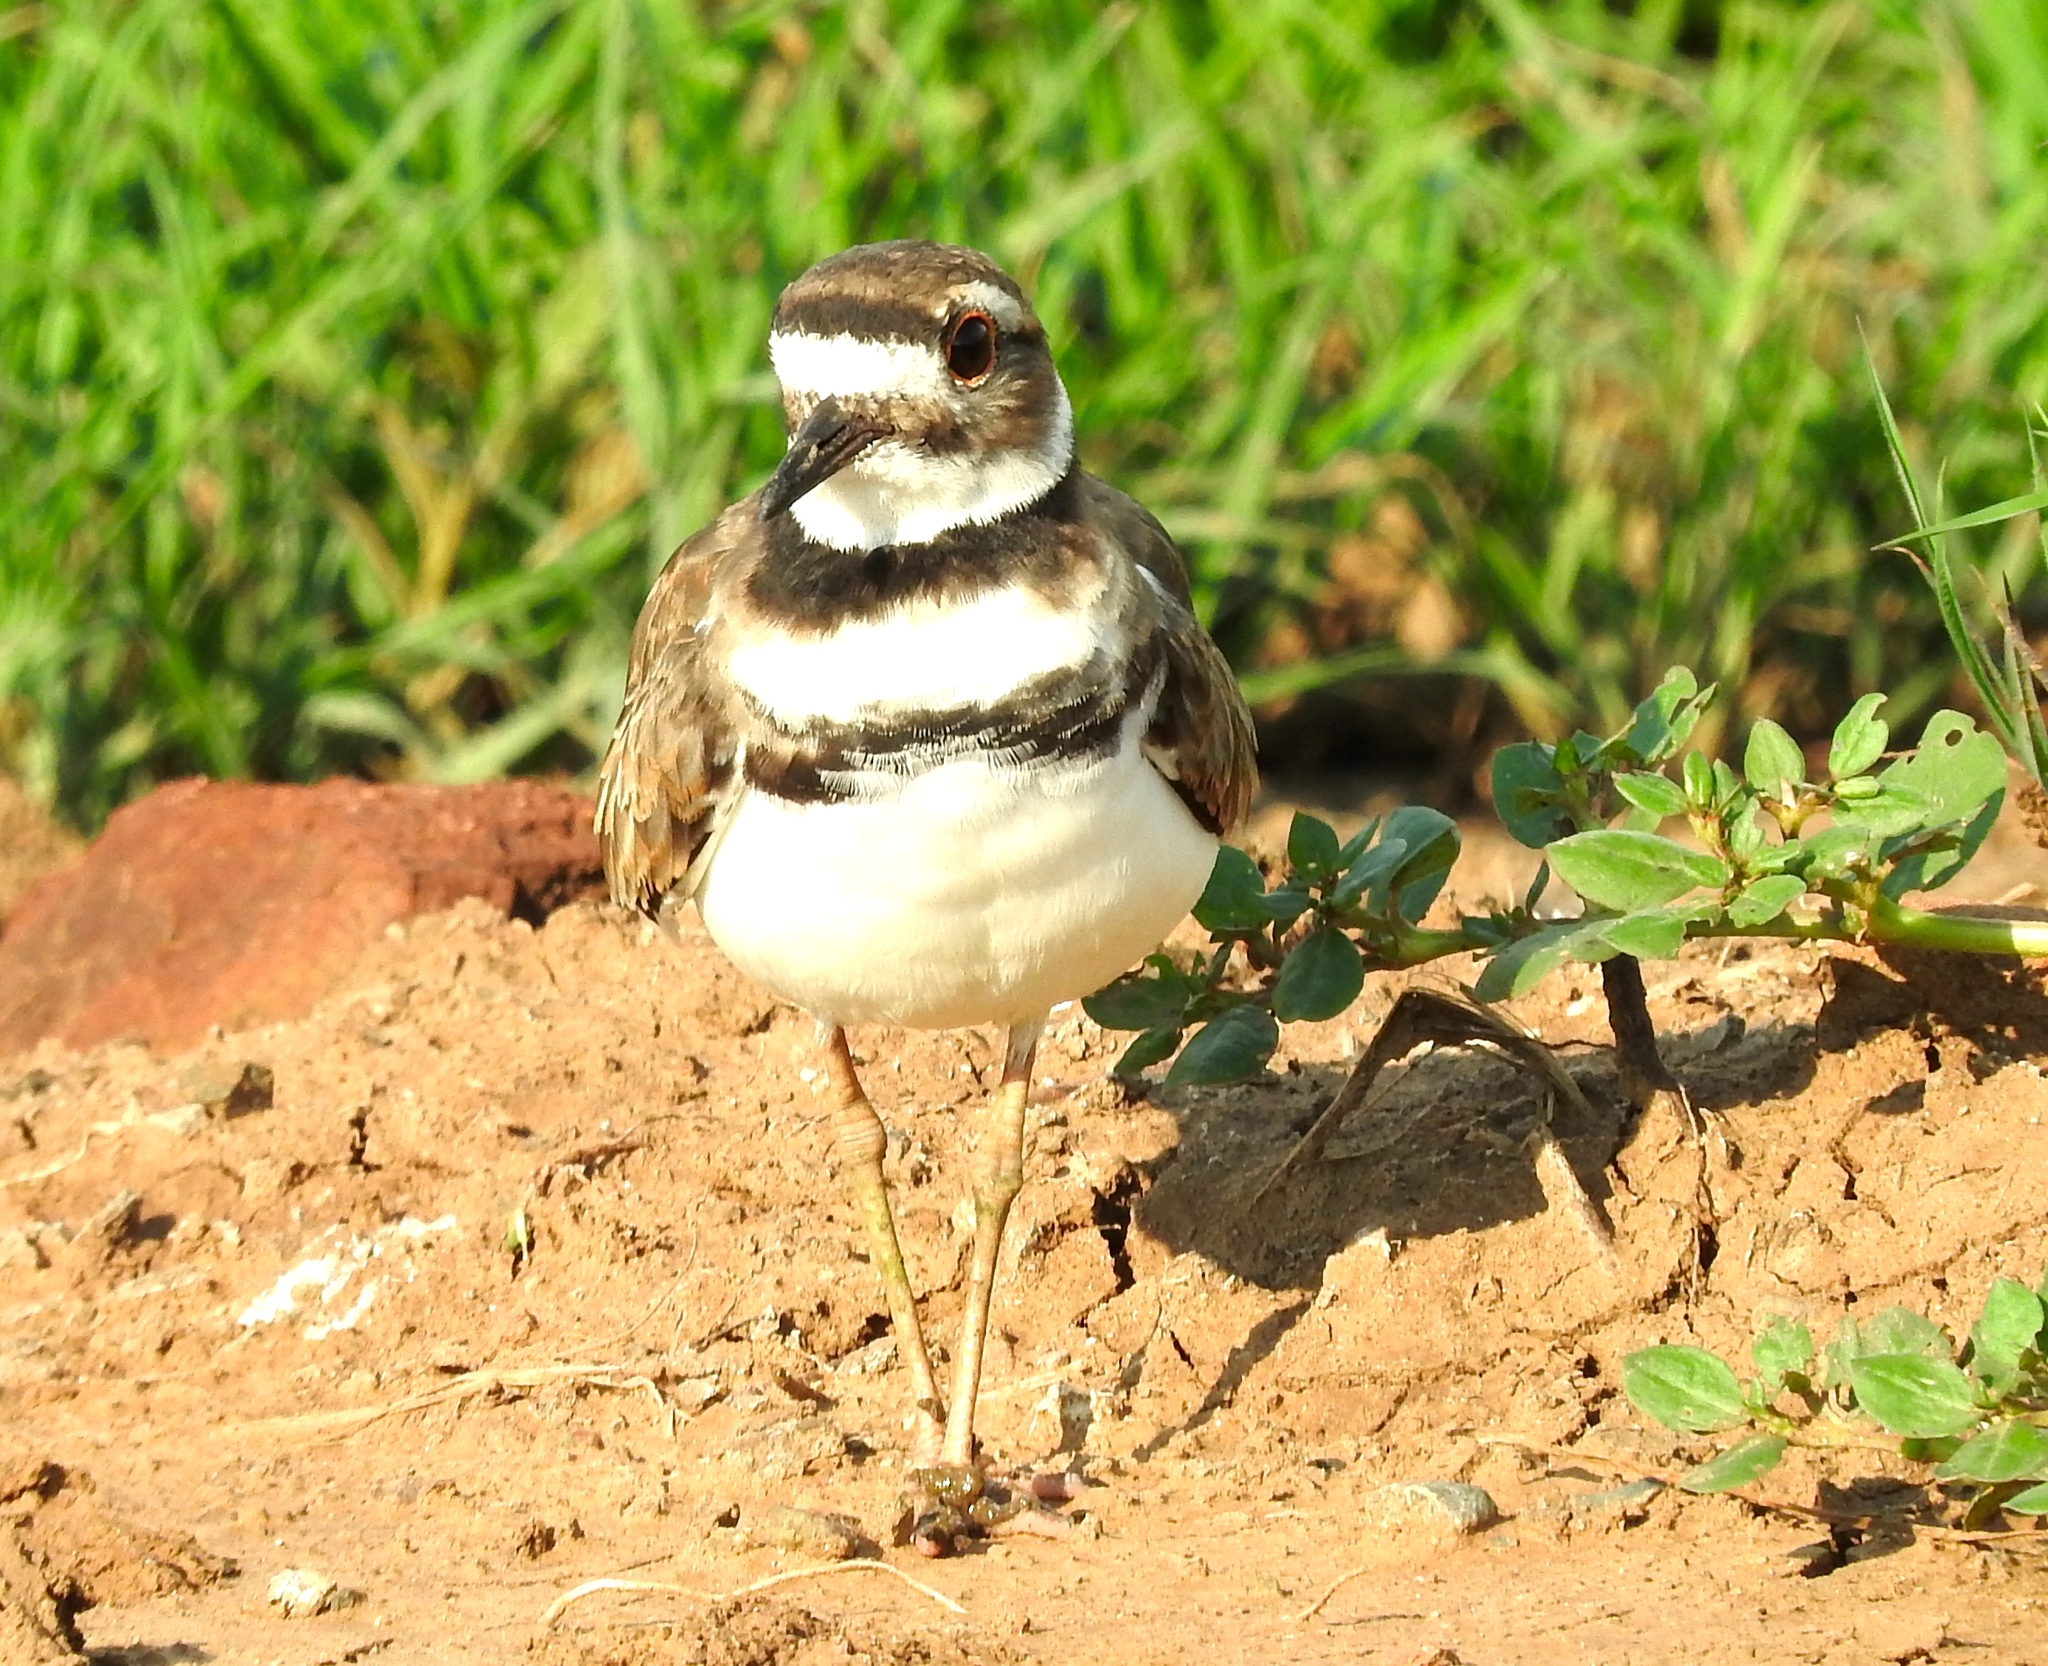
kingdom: Animalia
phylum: Chordata
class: Aves
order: Charadriiformes
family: Charadriidae
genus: Charadrius
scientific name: Charadrius vociferus
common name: Killdeer
